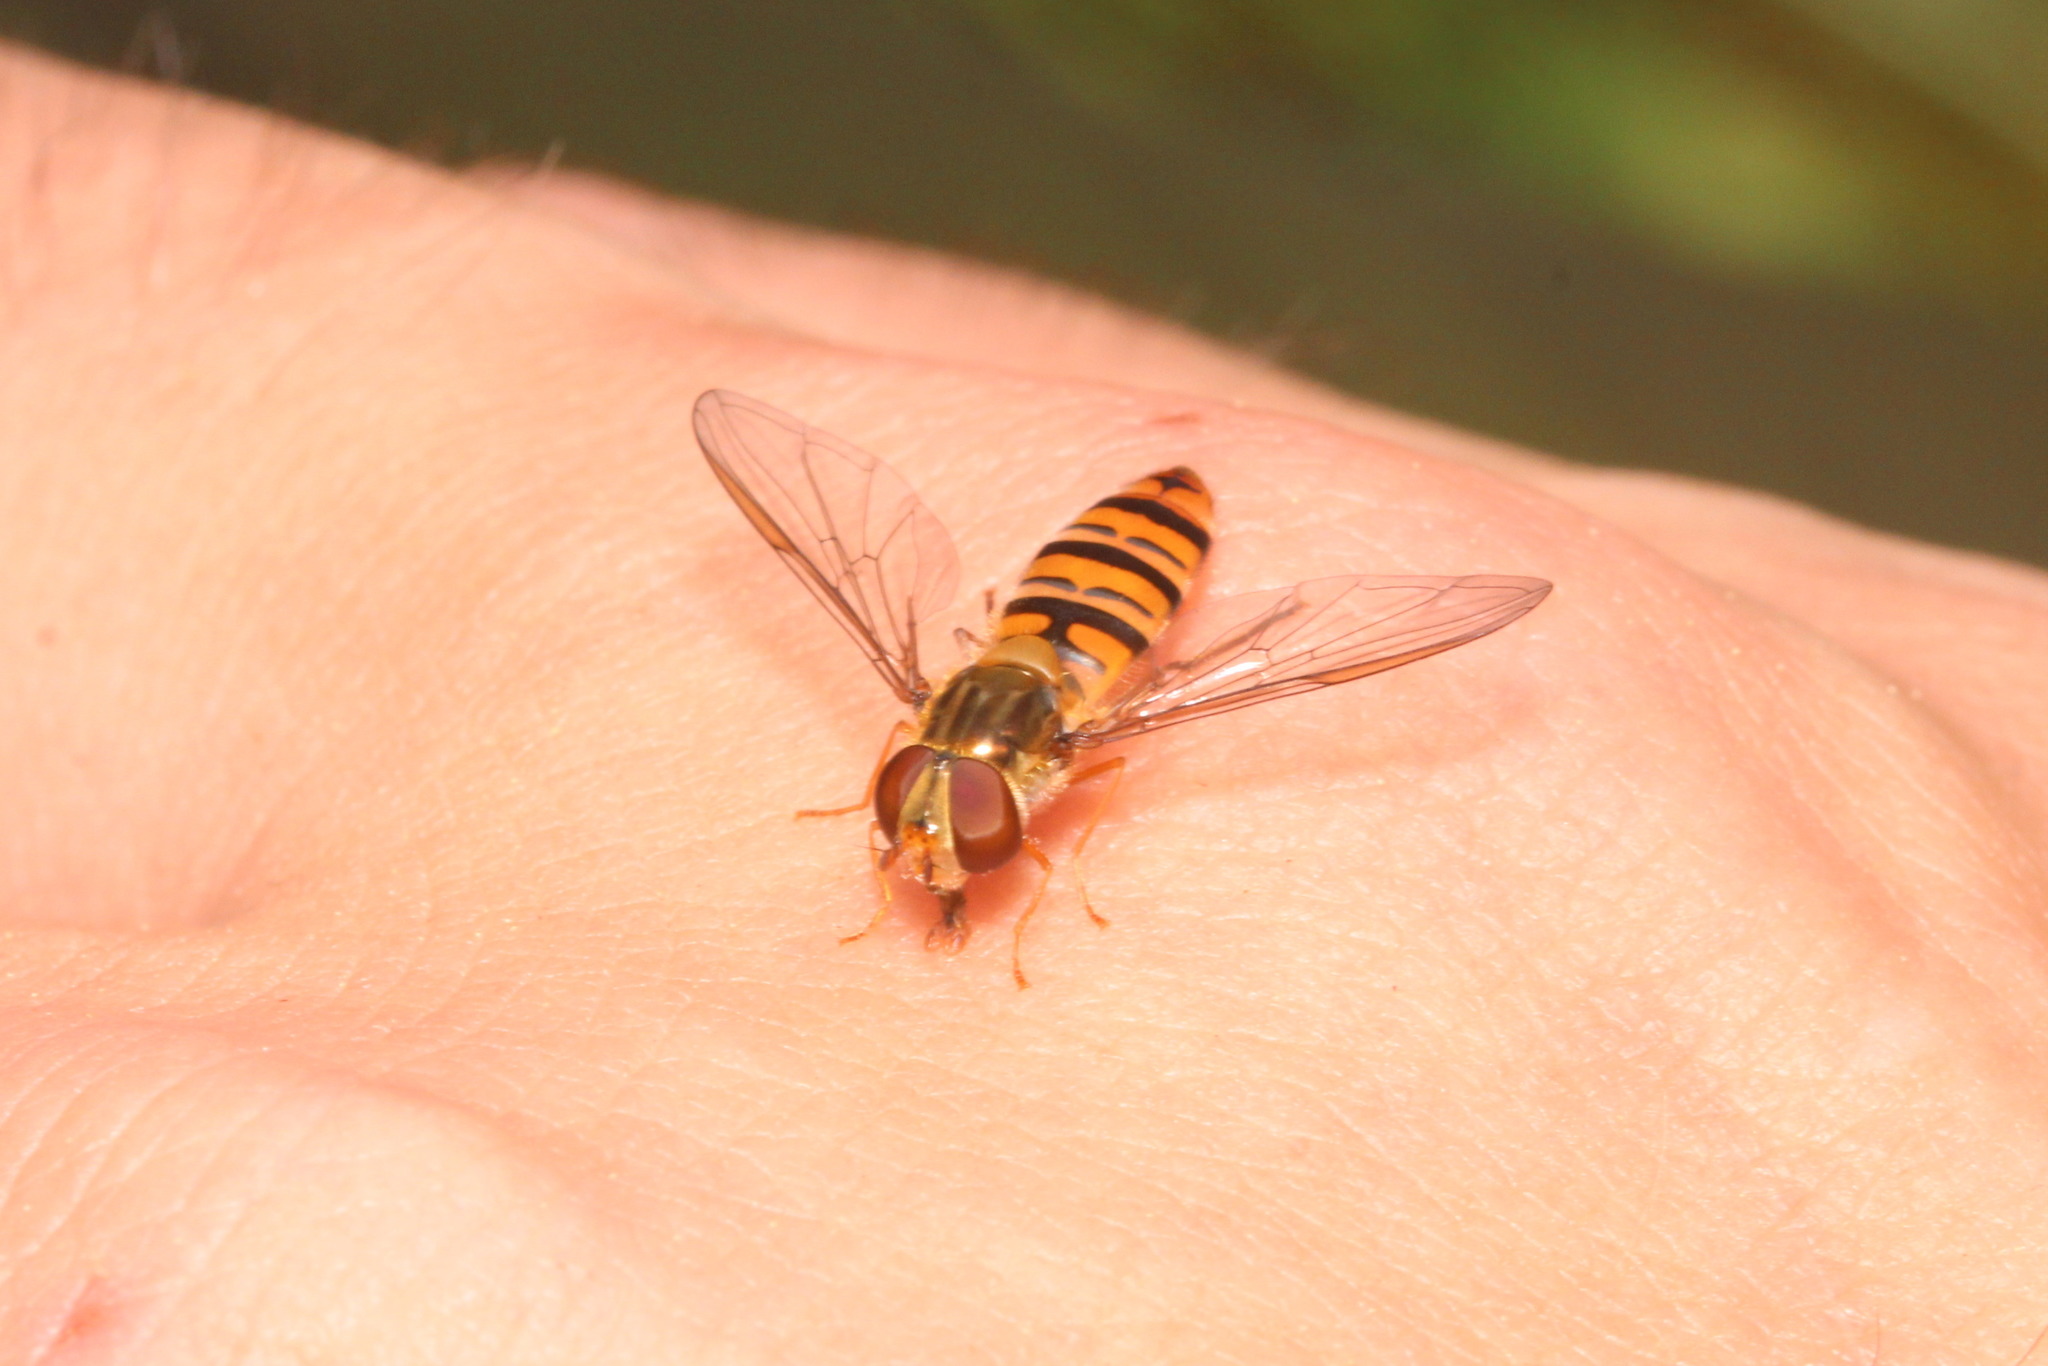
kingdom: Animalia
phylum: Arthropoda
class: Insecta
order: Diptera
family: Syrphidae
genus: Episyrphus
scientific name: Episyrphus balteatus
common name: Marmalade hoverfly
